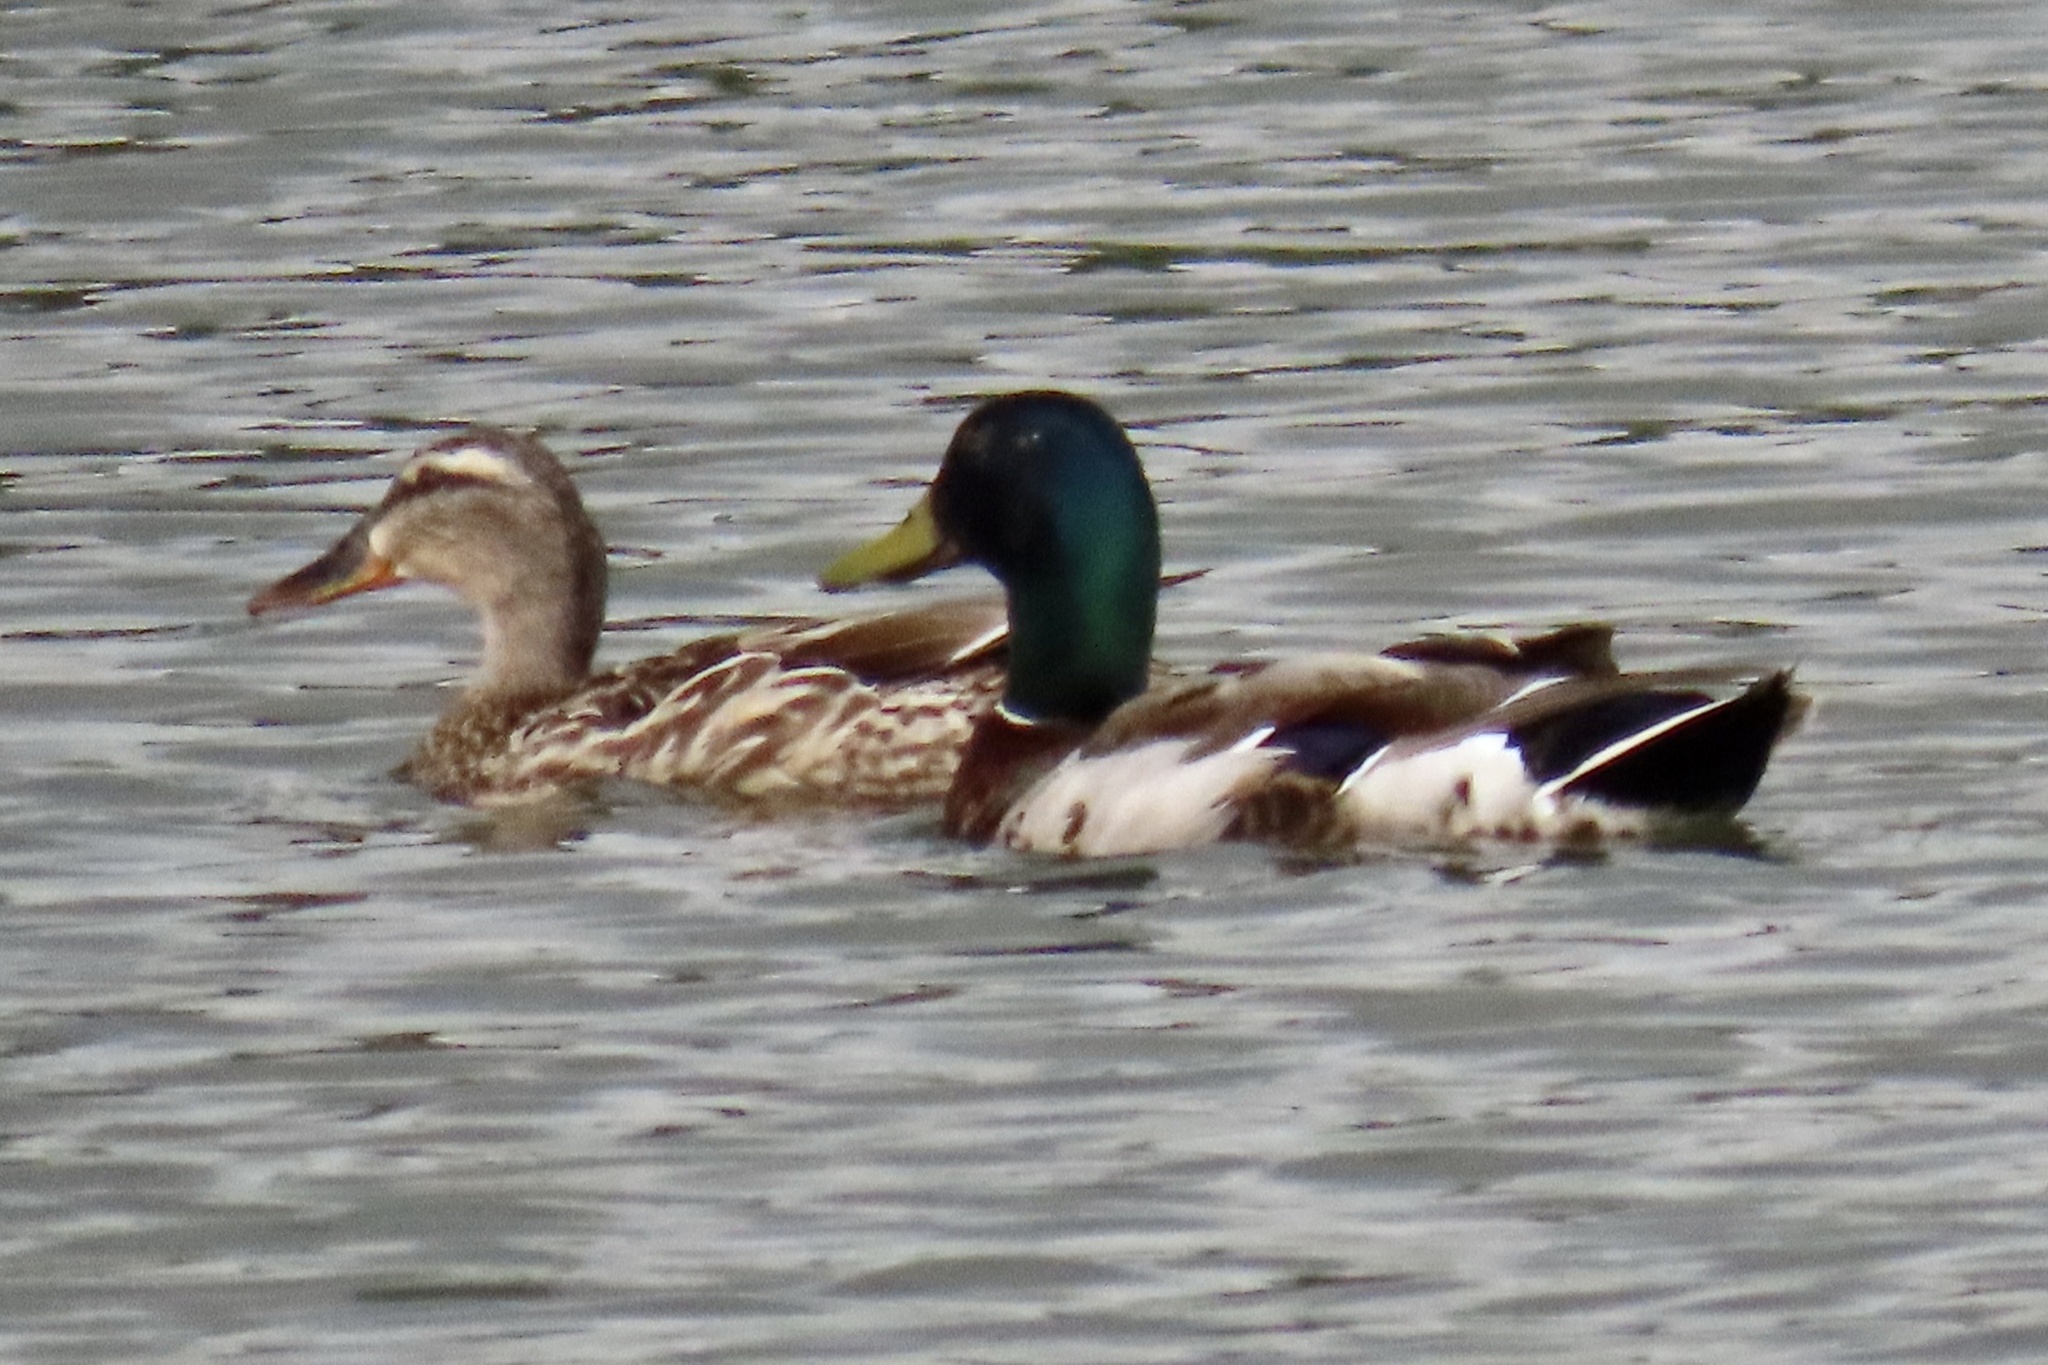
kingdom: Animalia
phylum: Chordata
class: Aves
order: Anseriformes
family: Anatidae
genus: Anas
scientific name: Anas platyrhynchos
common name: Mallard
